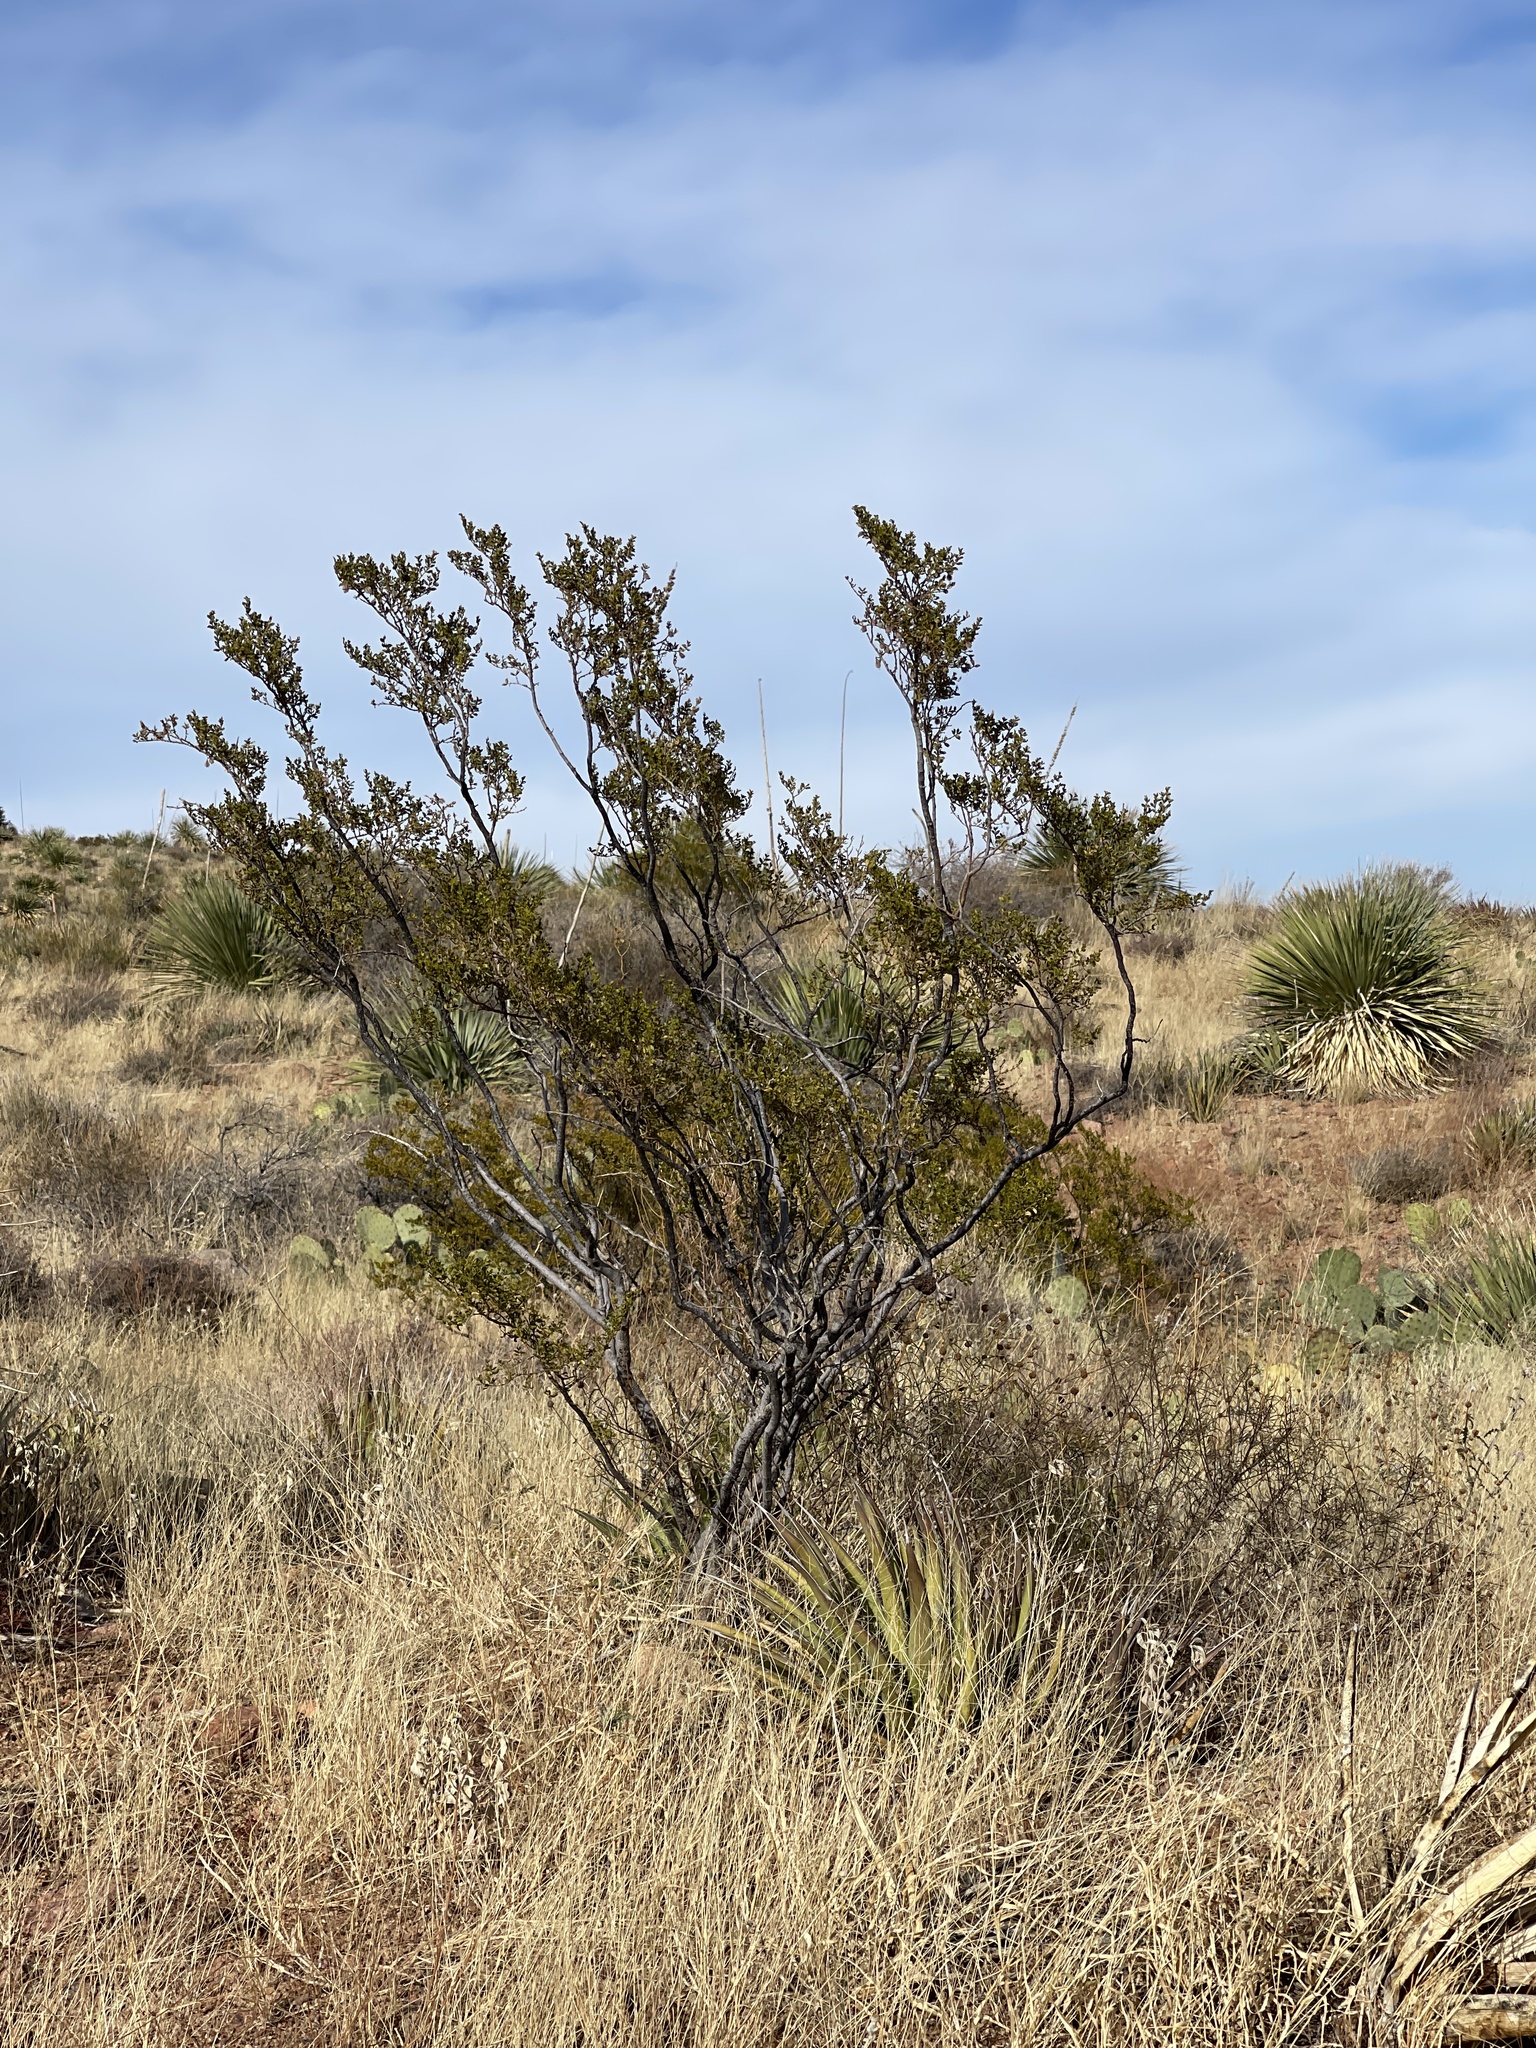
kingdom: Plantae
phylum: Tracheophyta
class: Magnoliopsida
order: Zygophyllales
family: Zygophyllaceae
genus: Larrea
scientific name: Larrea tridentata
